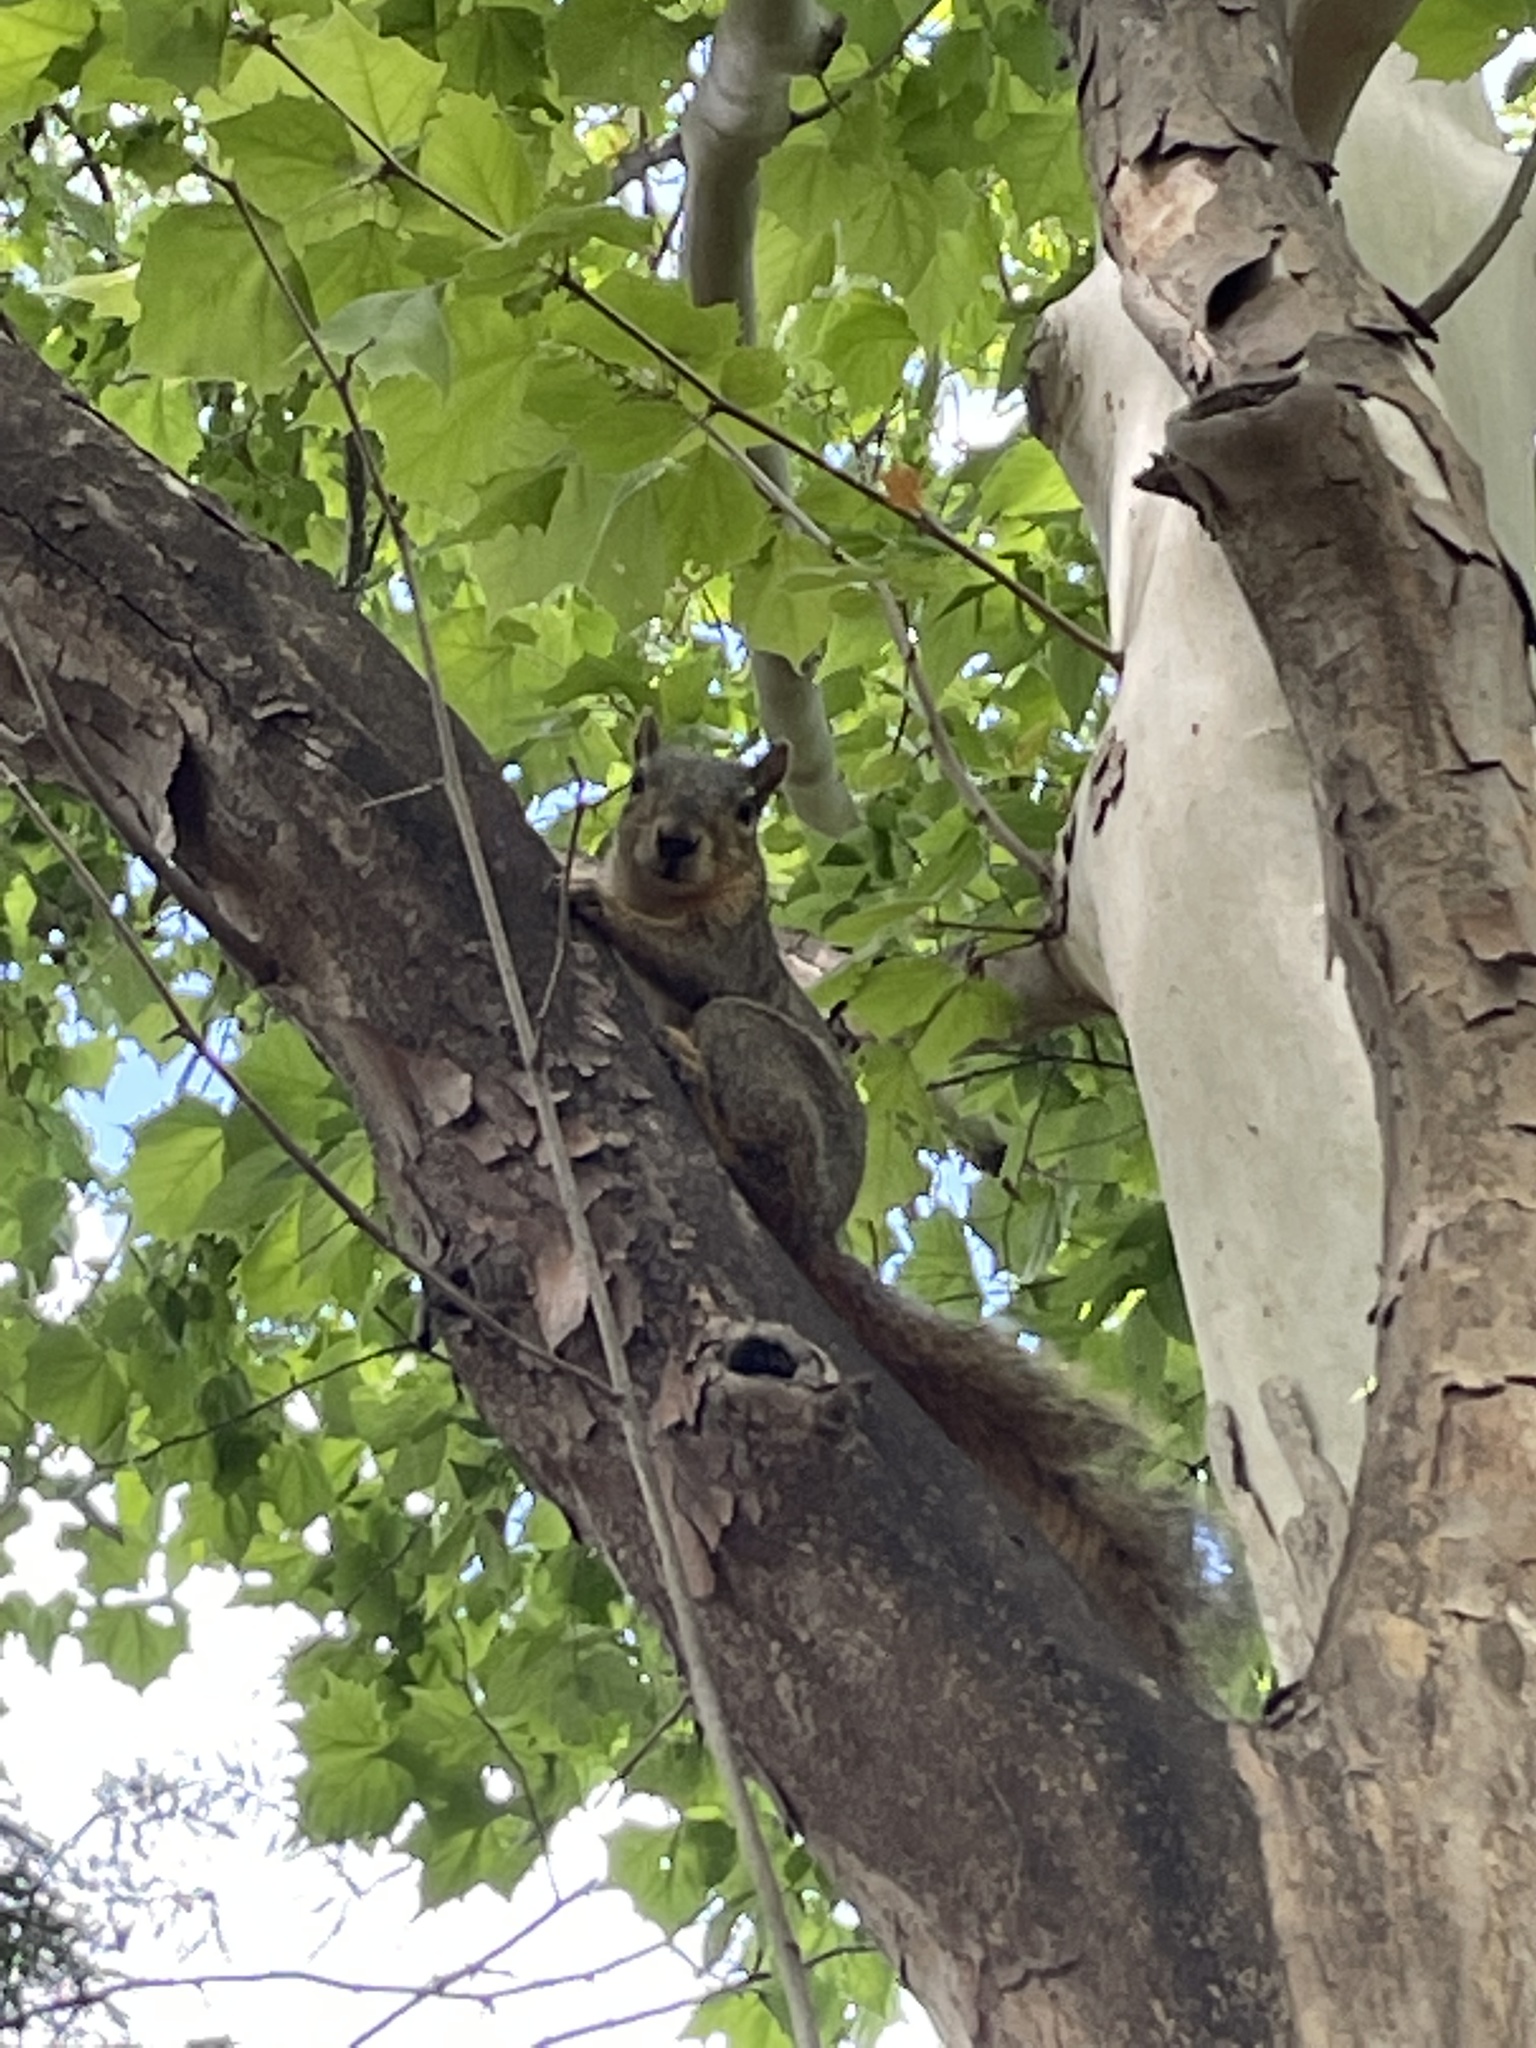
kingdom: Animalia
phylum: Chordata
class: Mammalia
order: Rodentia
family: Sciuridae
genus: Sciurus
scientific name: Sciurus niger
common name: Fox squirrel
